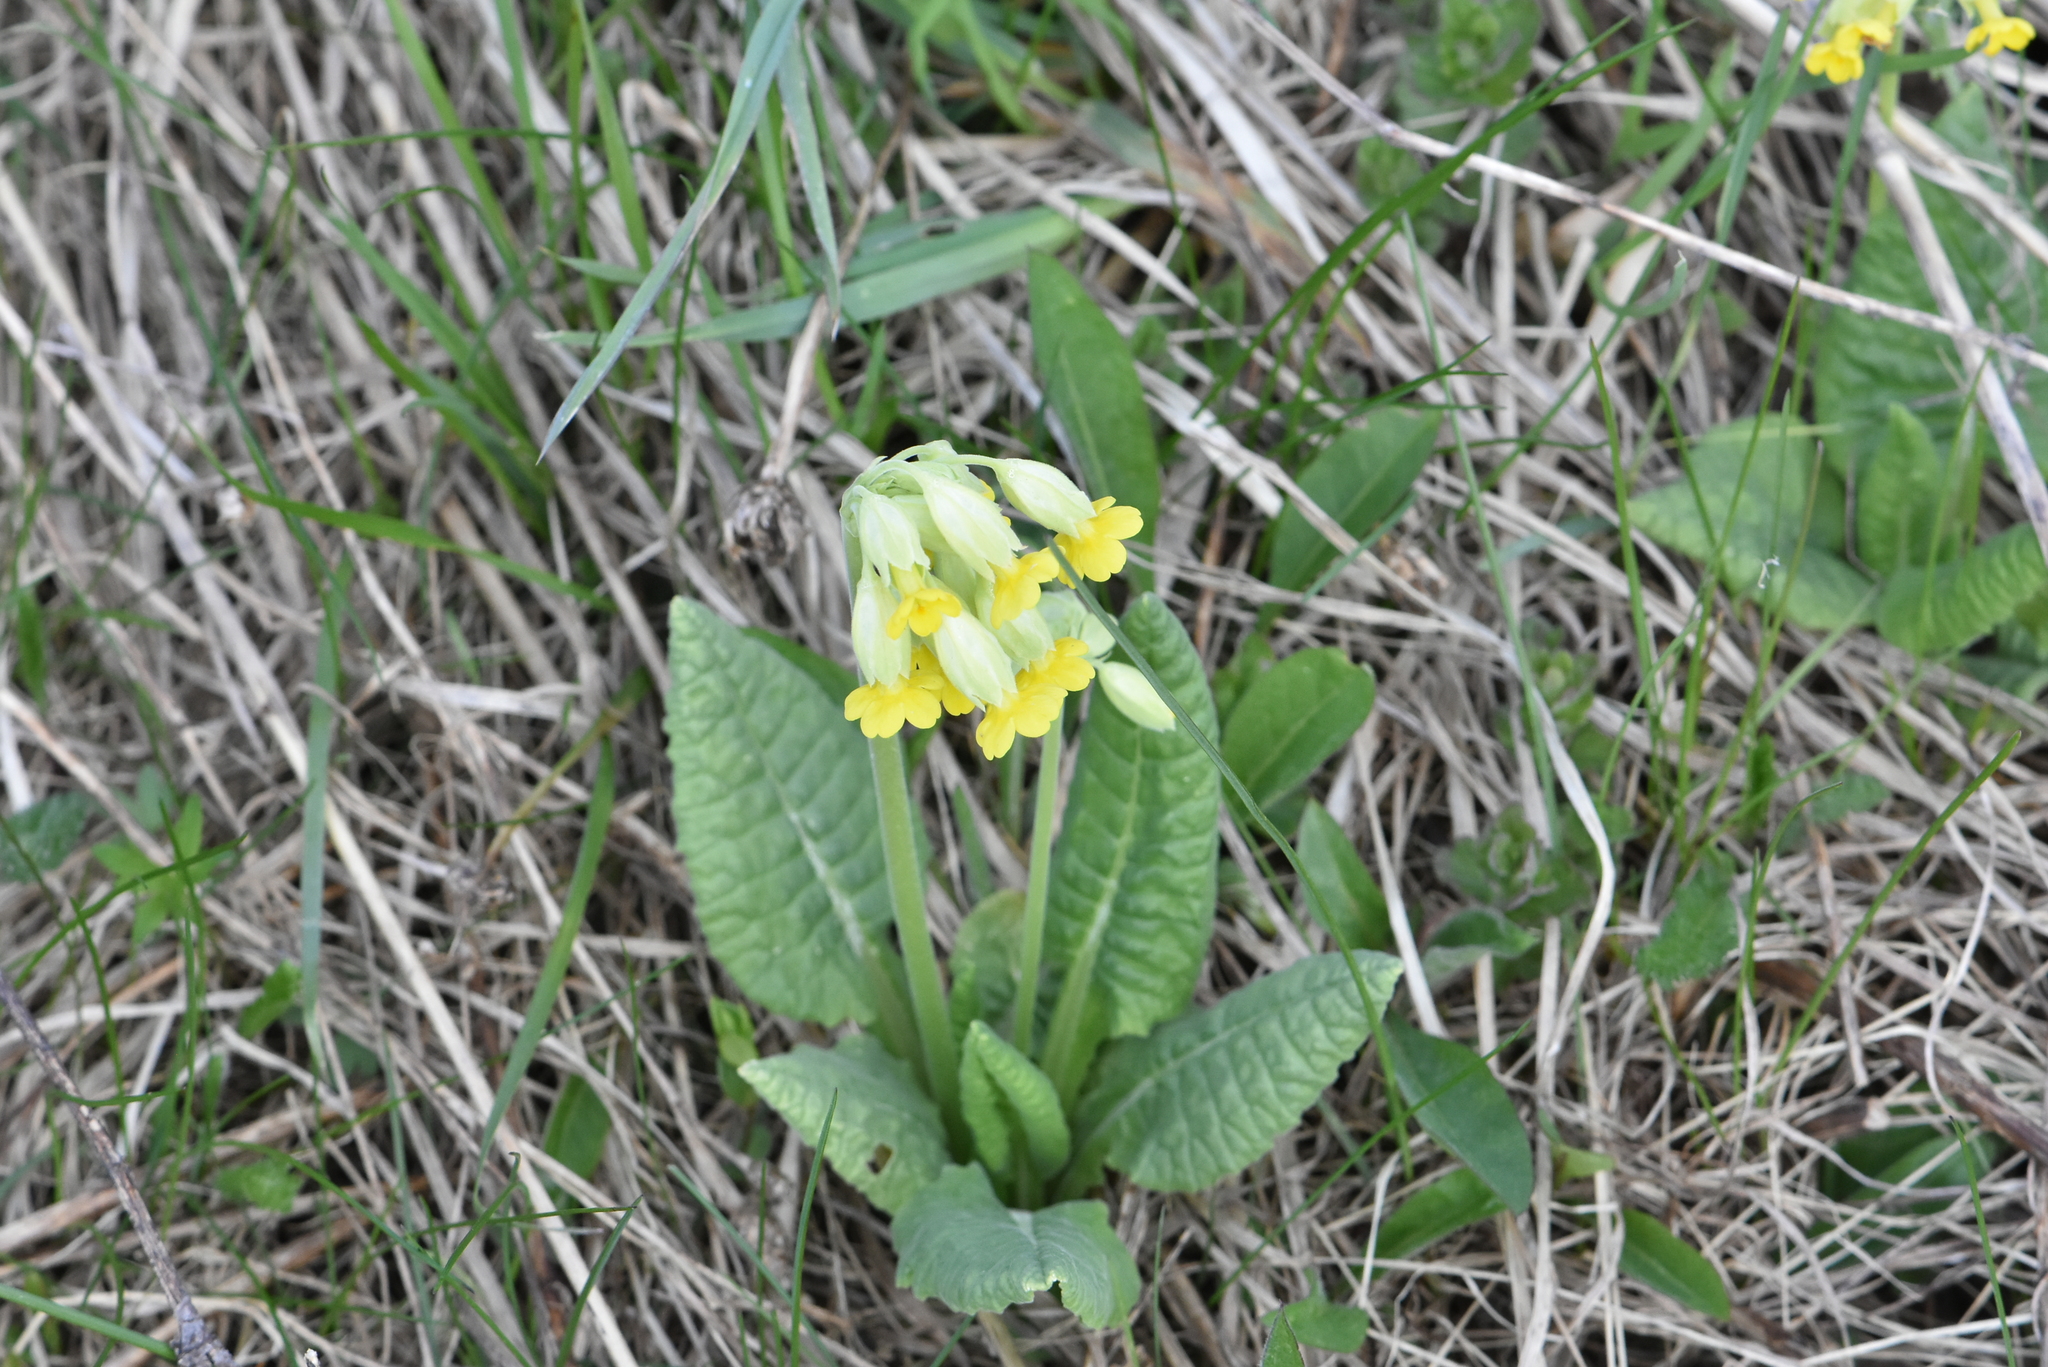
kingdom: Plantae
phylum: Tracheophyta
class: Magnoliopsida
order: Ericales
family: Primulaceae
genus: Primula
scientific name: Primula veris
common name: Cowslip
